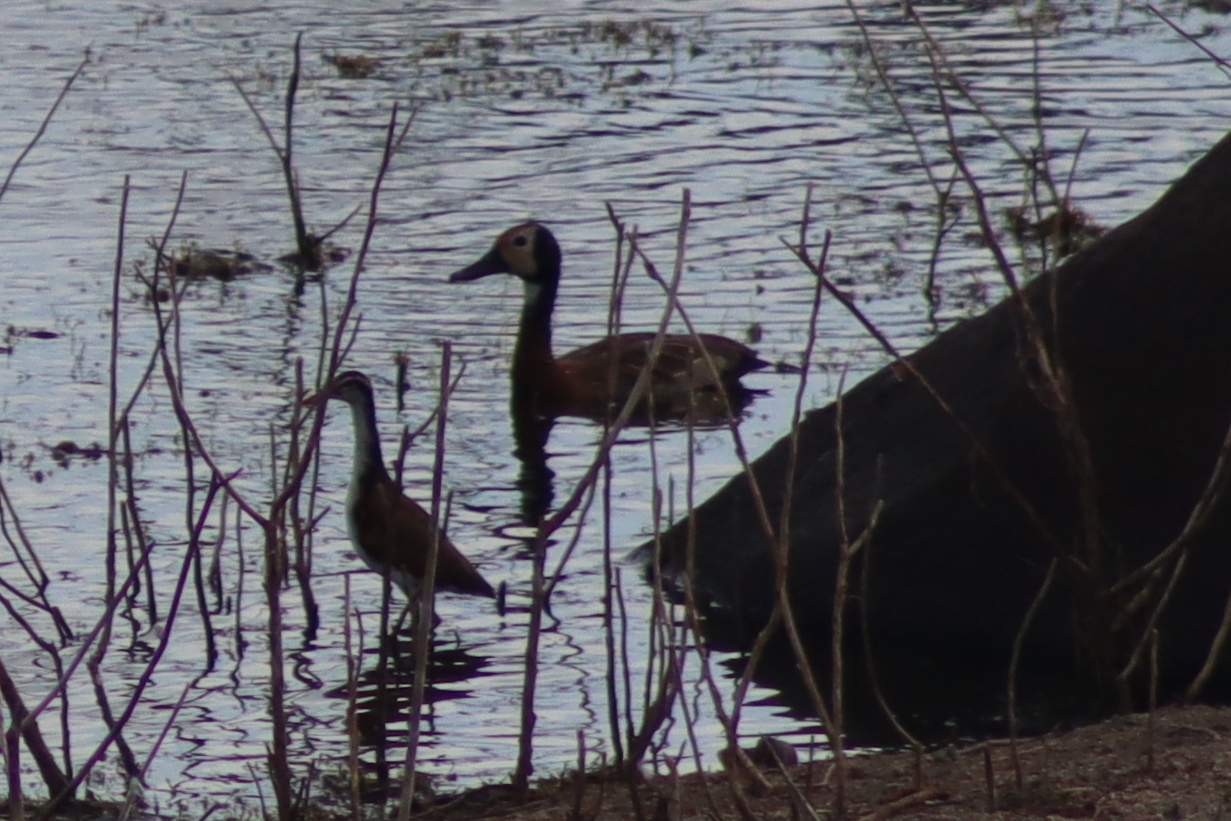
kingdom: Animalia
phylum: Chordata
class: Aves
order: Anseriformes
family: Anatidae
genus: Dendrocygna
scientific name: Dendrocygna viduata
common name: White-faced whistling duck
